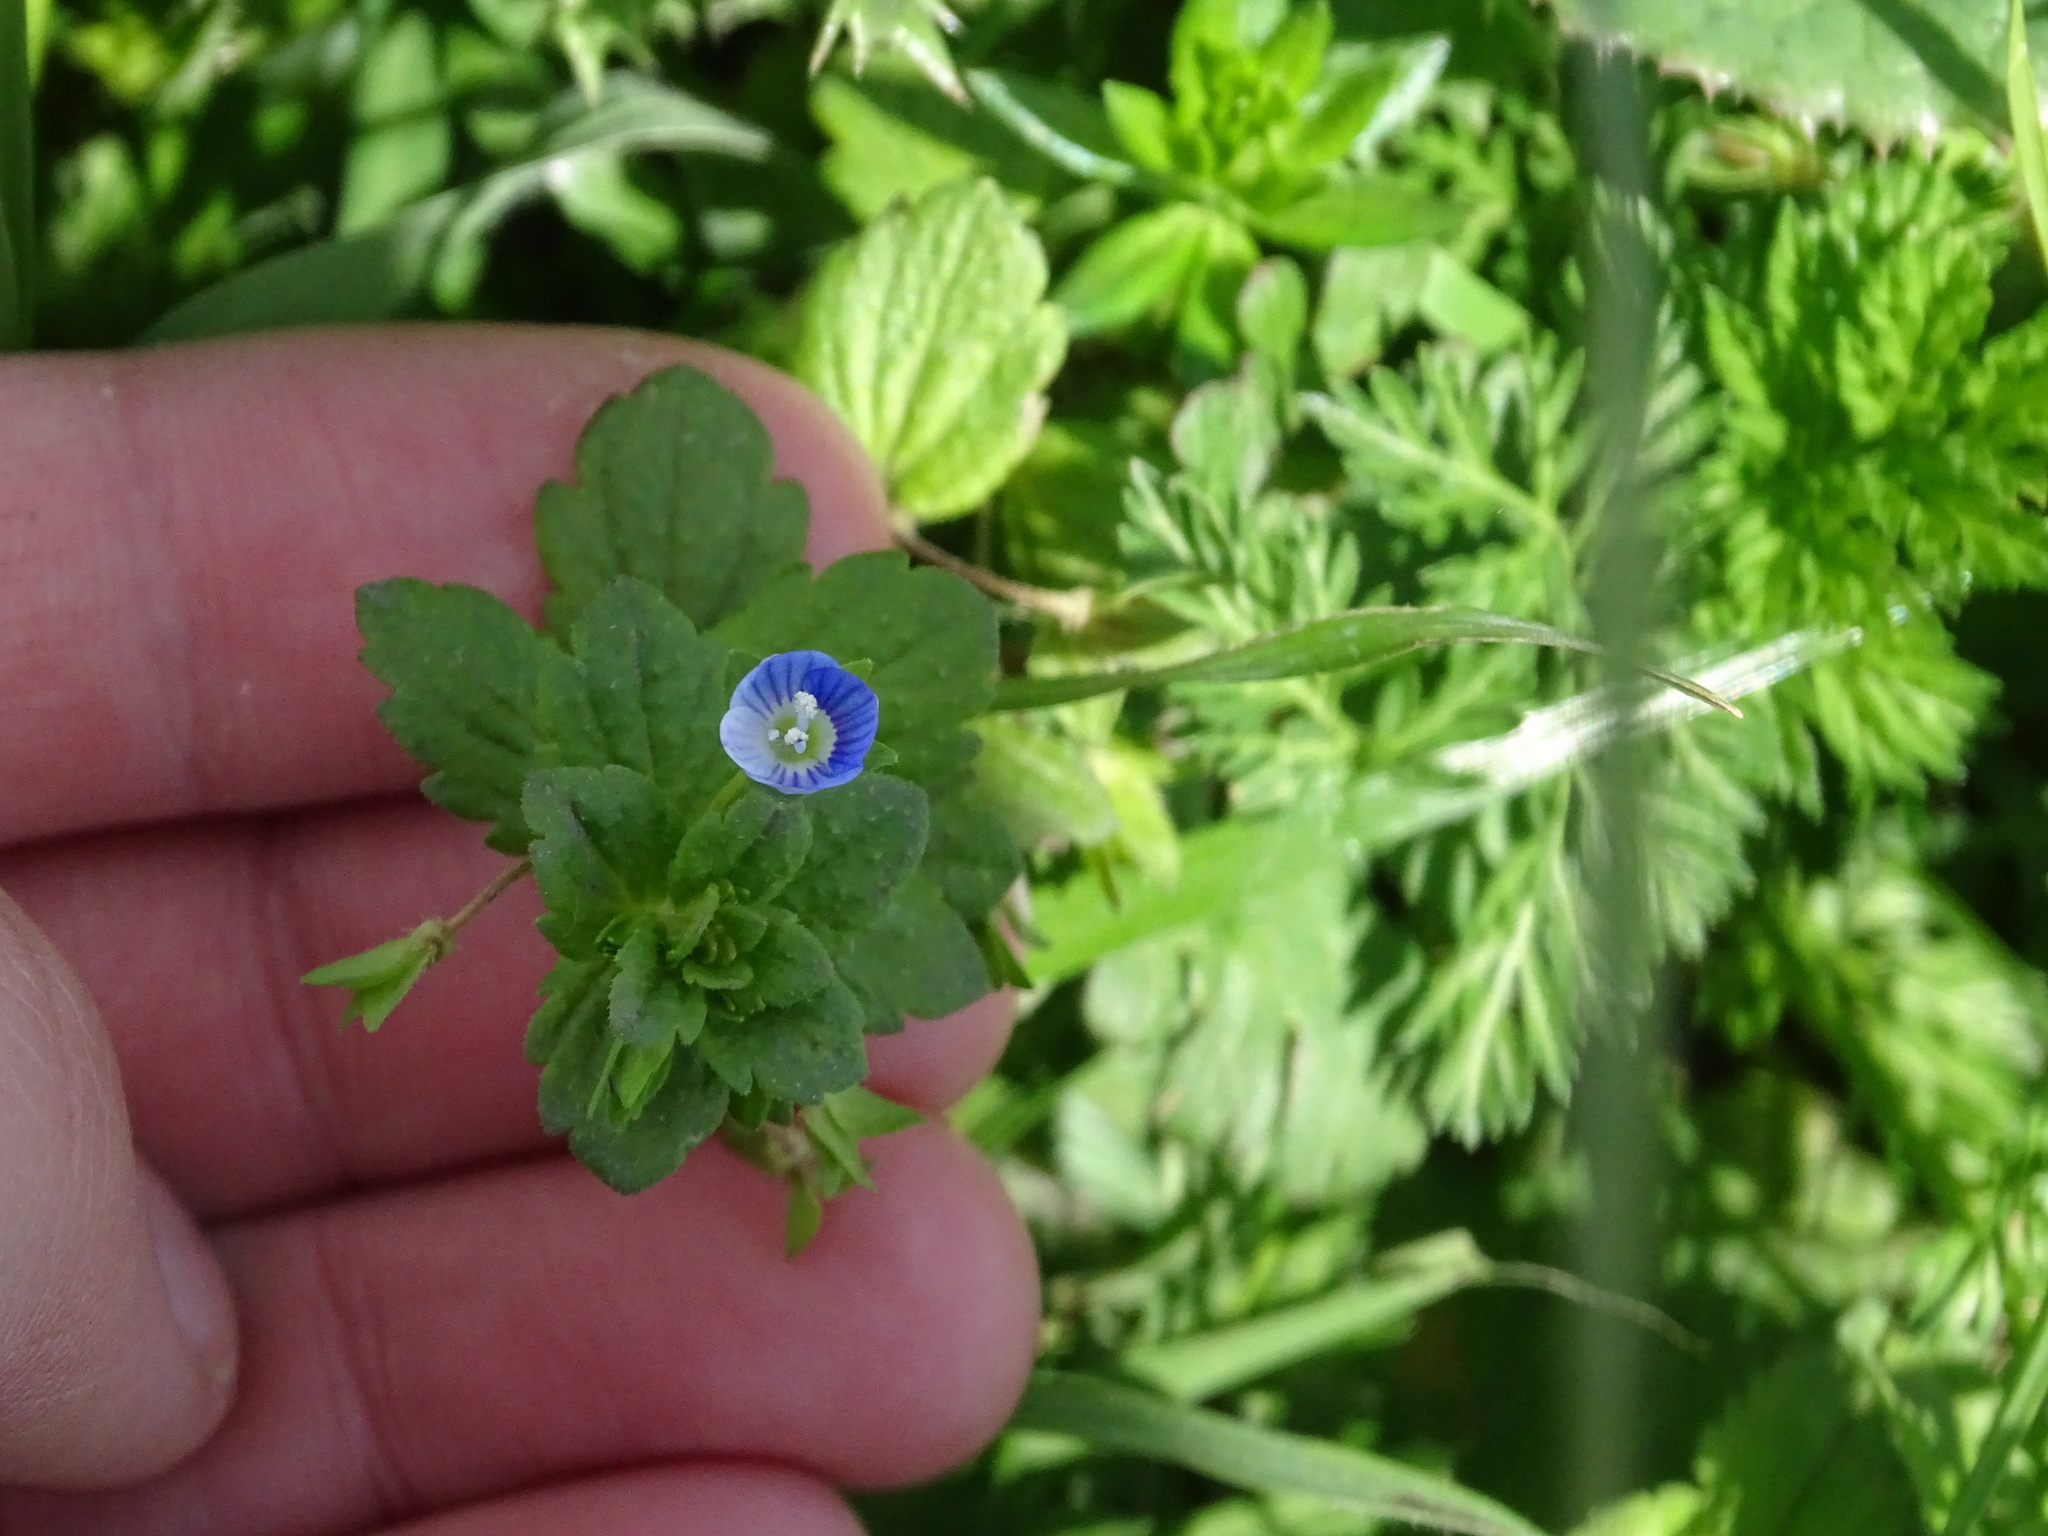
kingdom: Plantae
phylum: Tracheophyta
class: Magnoliopsida
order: Lamiales
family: Plantaginaceae
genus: Veronica
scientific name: Veronica persica
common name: Common field-speedwell
